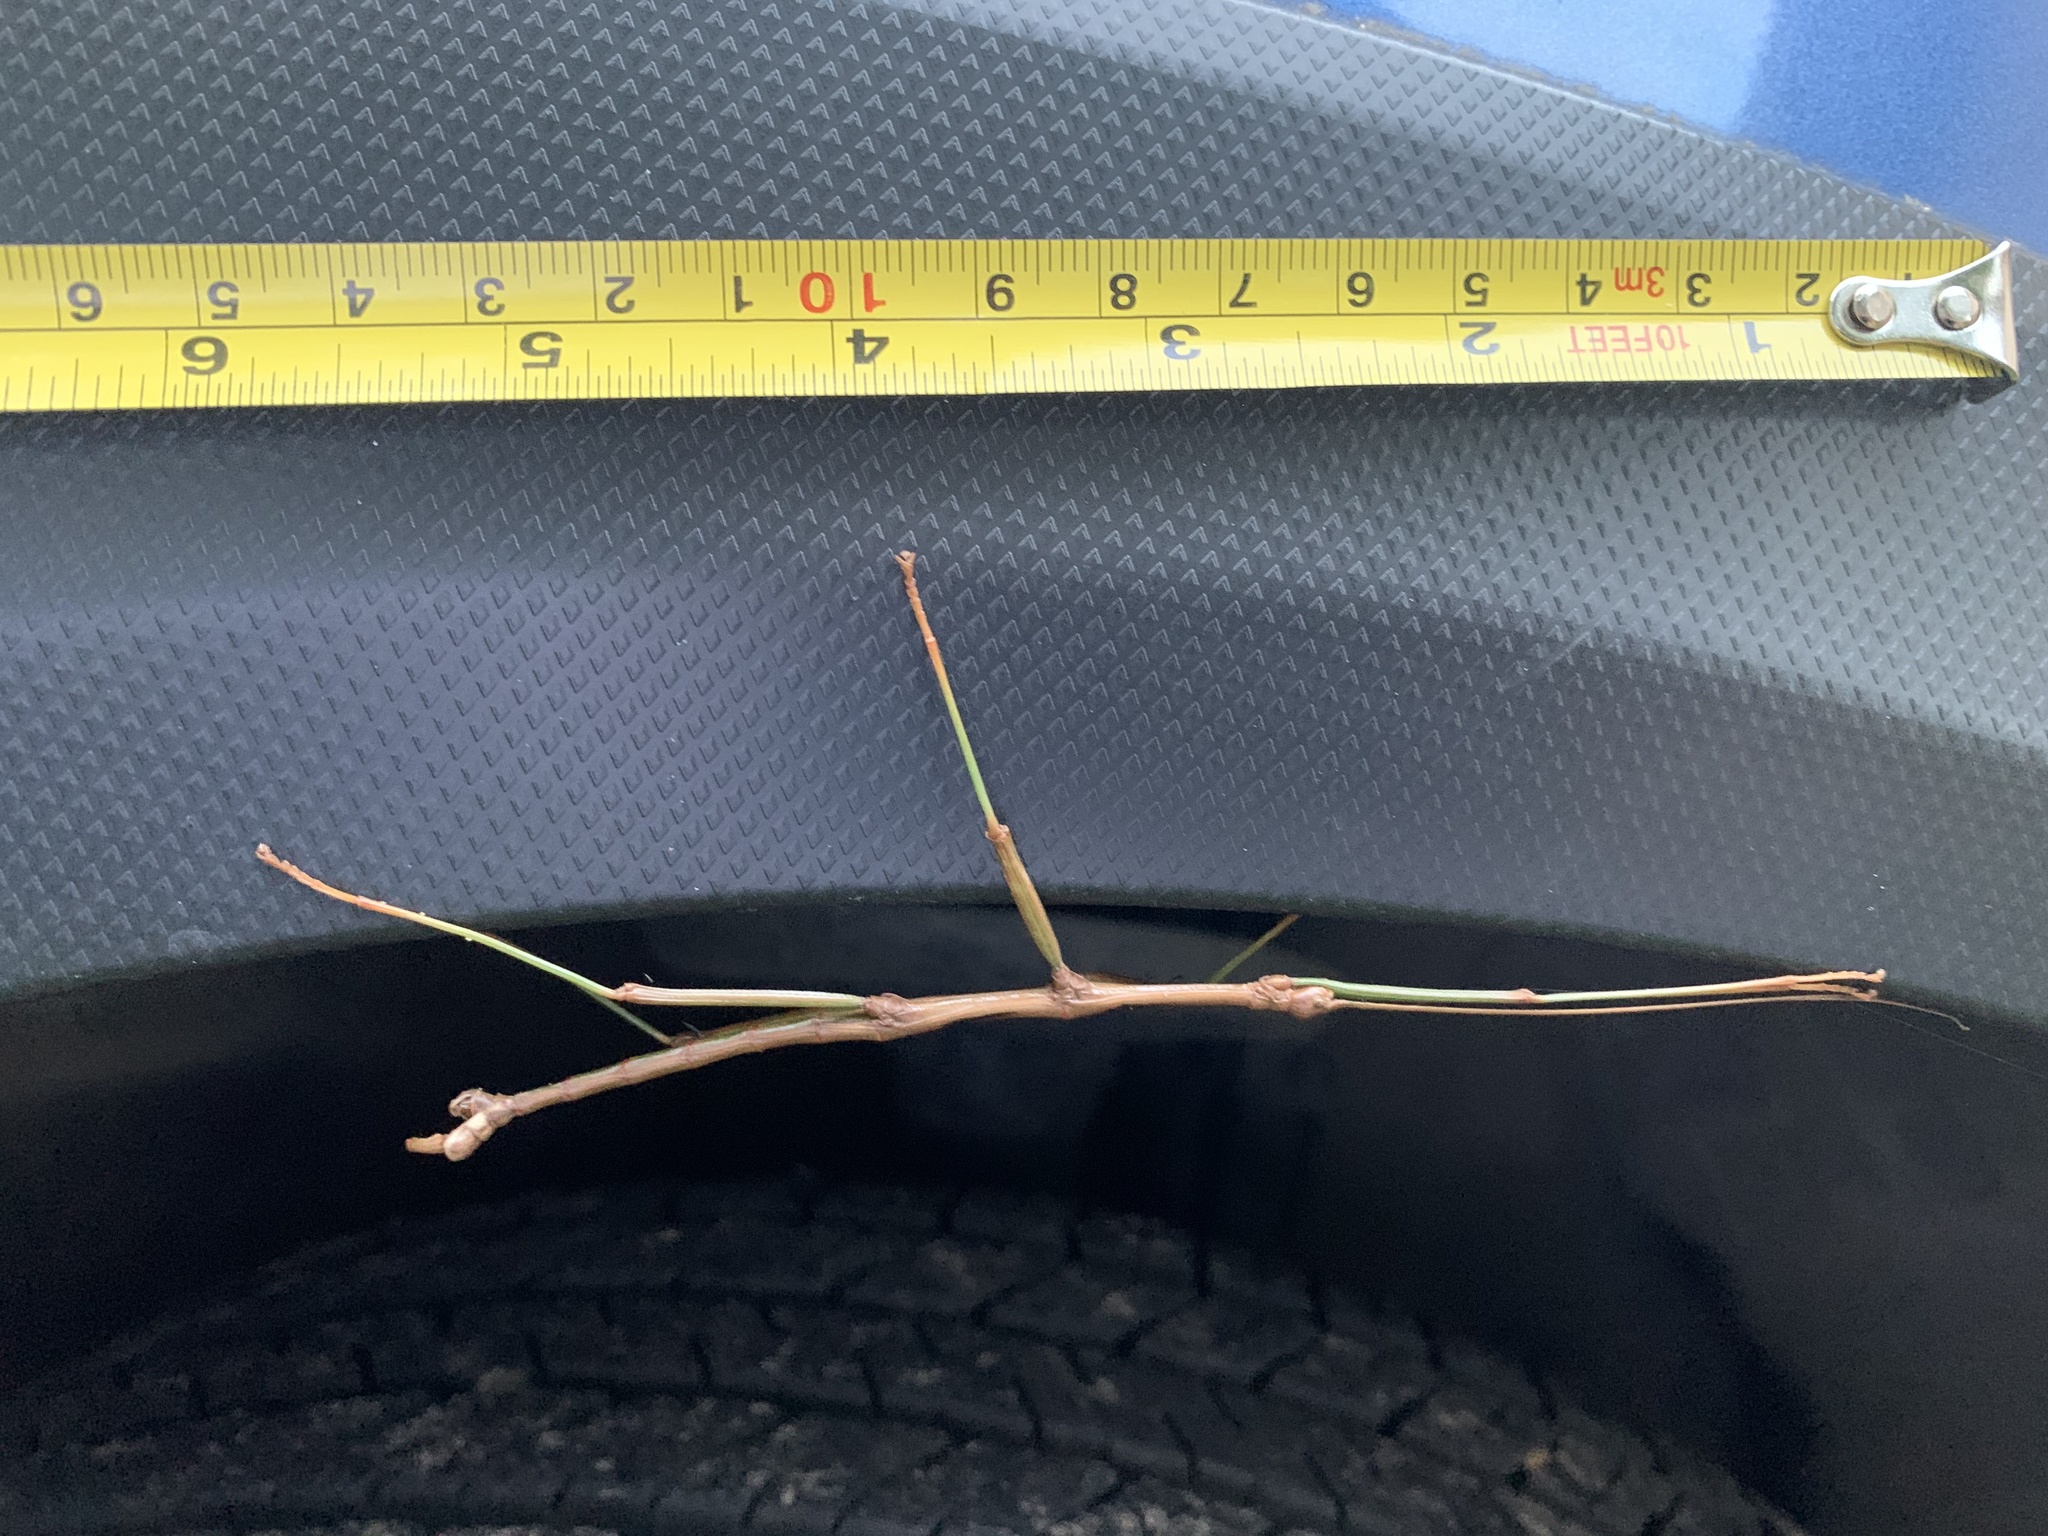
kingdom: Animalia
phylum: Arthropoda
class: Insecta
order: Phasmida
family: Diapheromeridae
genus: Diapheromera
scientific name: Diapheromera carolina
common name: Carolina walkingstick
